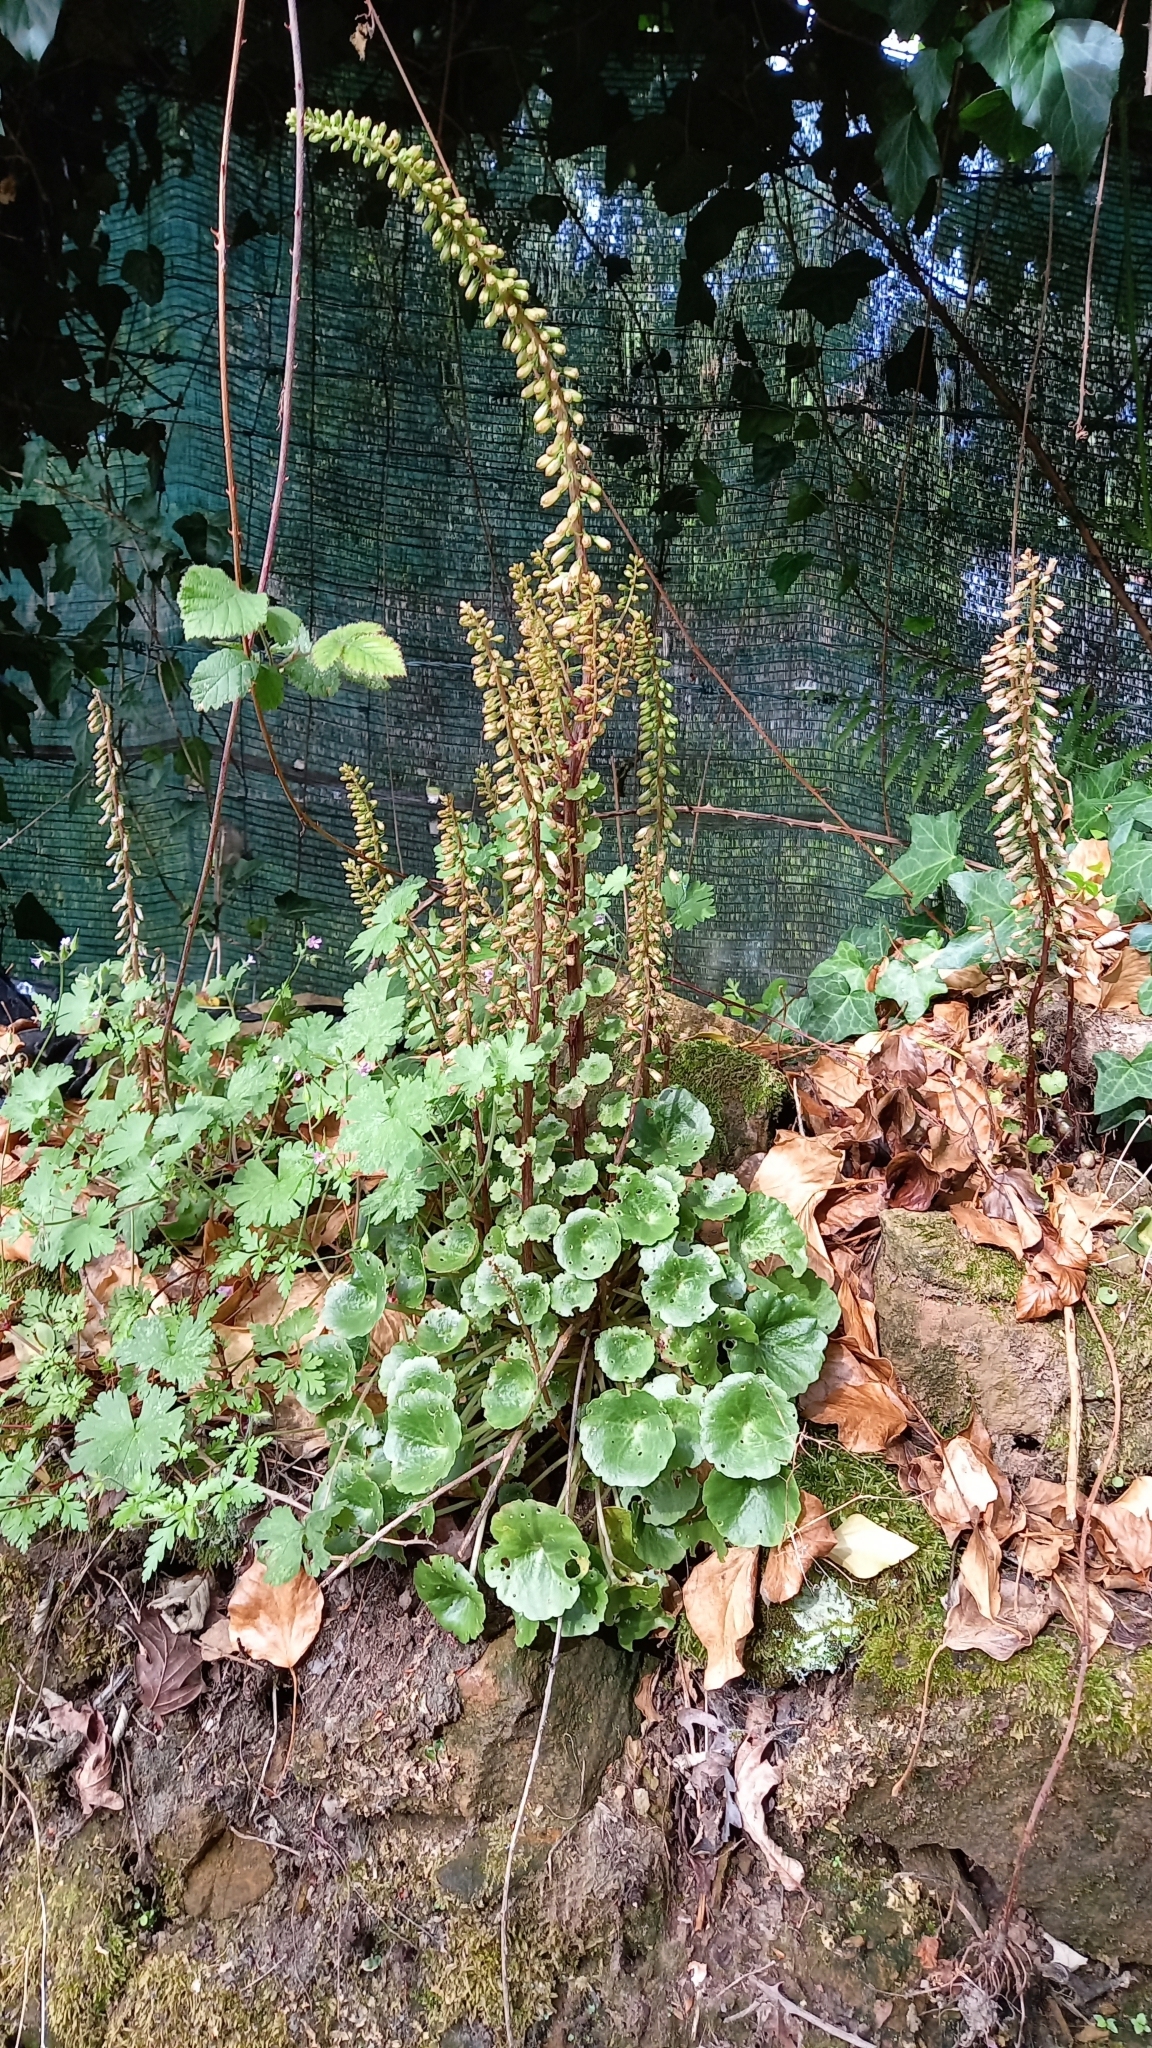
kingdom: Plantae
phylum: Tracheophyta
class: Magnoliopsida
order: Saxifragales
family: Crassulaceae
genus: Umbilicus
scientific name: Umbilicus rupestris
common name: Navelwort
